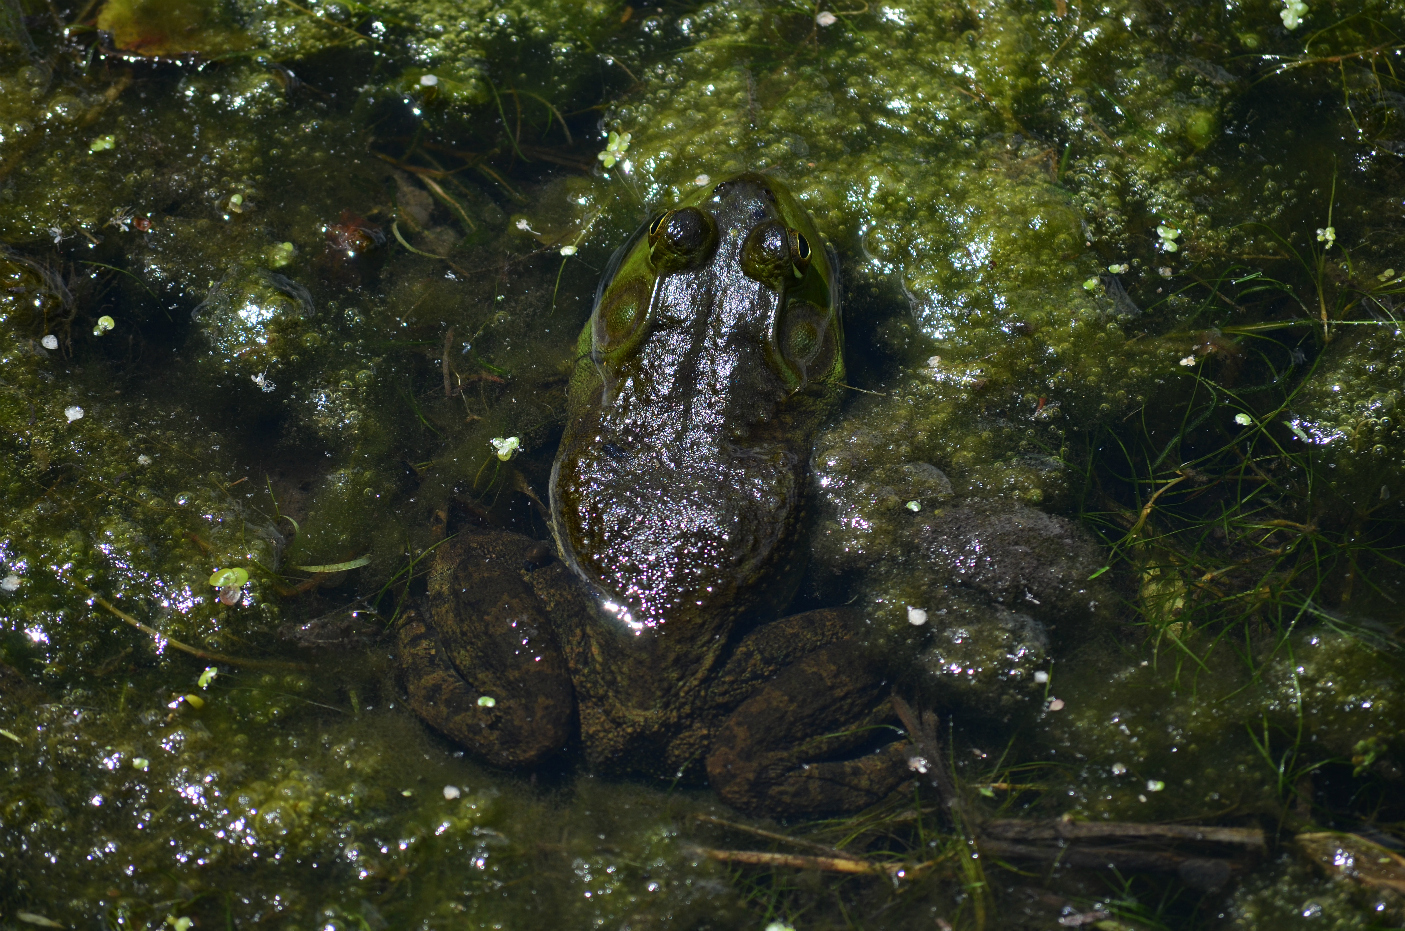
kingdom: Animalia
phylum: Chordata
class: Amphibia
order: Anura
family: Ranidae
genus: Lithobates
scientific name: Lithobates clamitans
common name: Green frog
